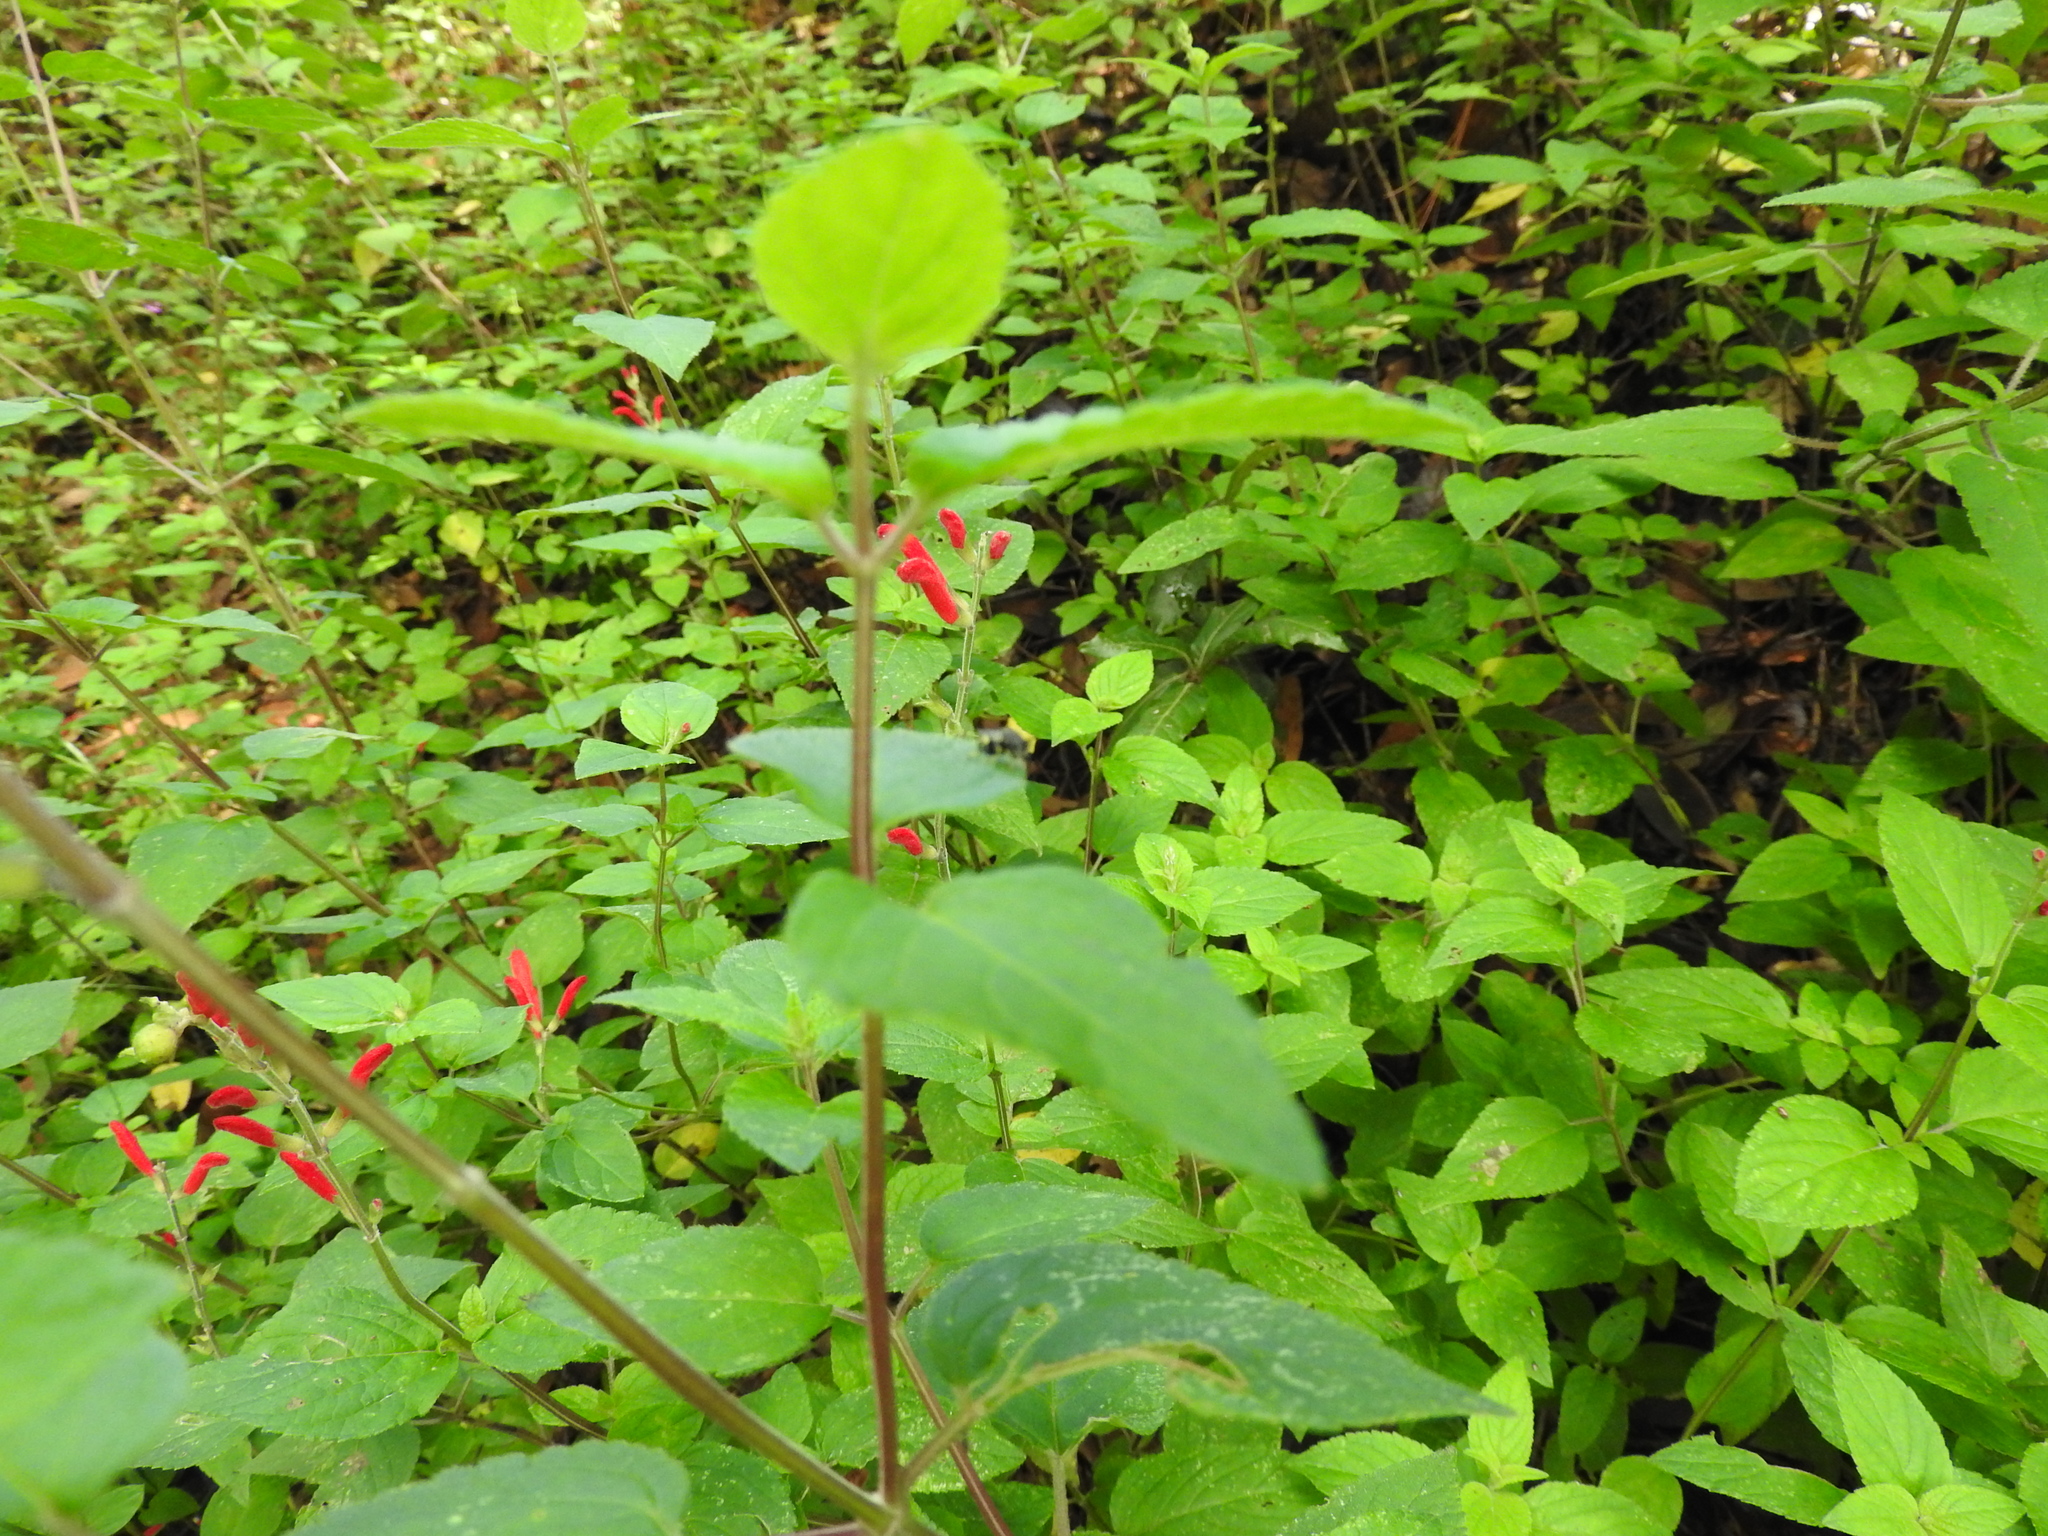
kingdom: Plantae
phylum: Tracheophyta
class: Magnoliopsida
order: Lamiales
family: Lamiaceae
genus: Salvia
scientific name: Salvia elegans
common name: Pineapple sage
